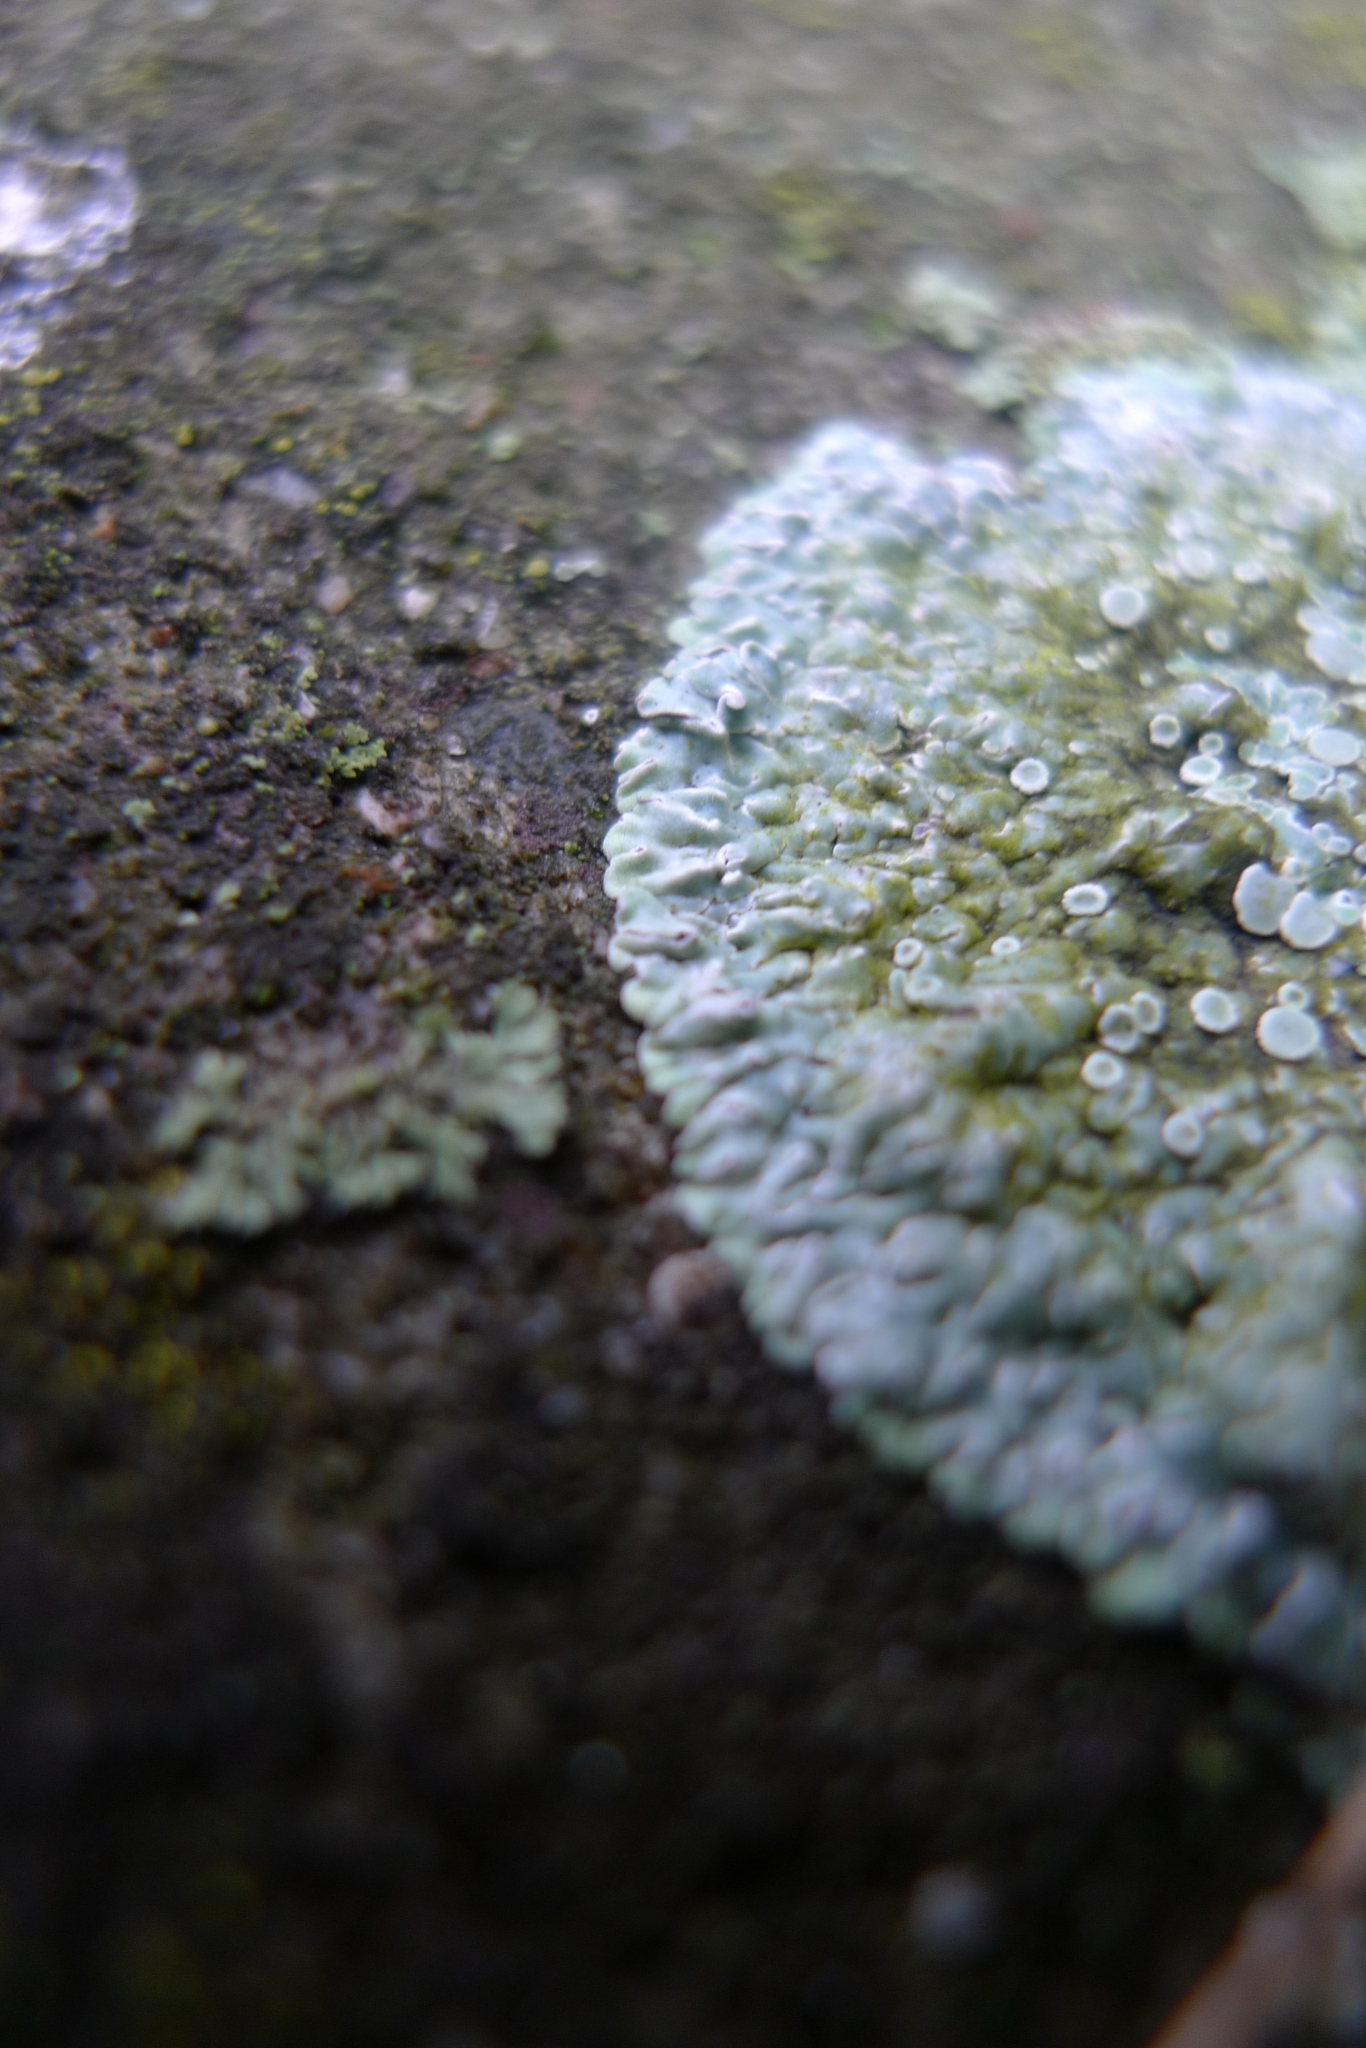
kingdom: Fungi
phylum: Ascomycota
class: Lecanoromycetes
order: Lecanorales
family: Lecanoraceae
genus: Protoparmeliopsis
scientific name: Protoparmeliopsis muralis
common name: Stonewall rim lichen
